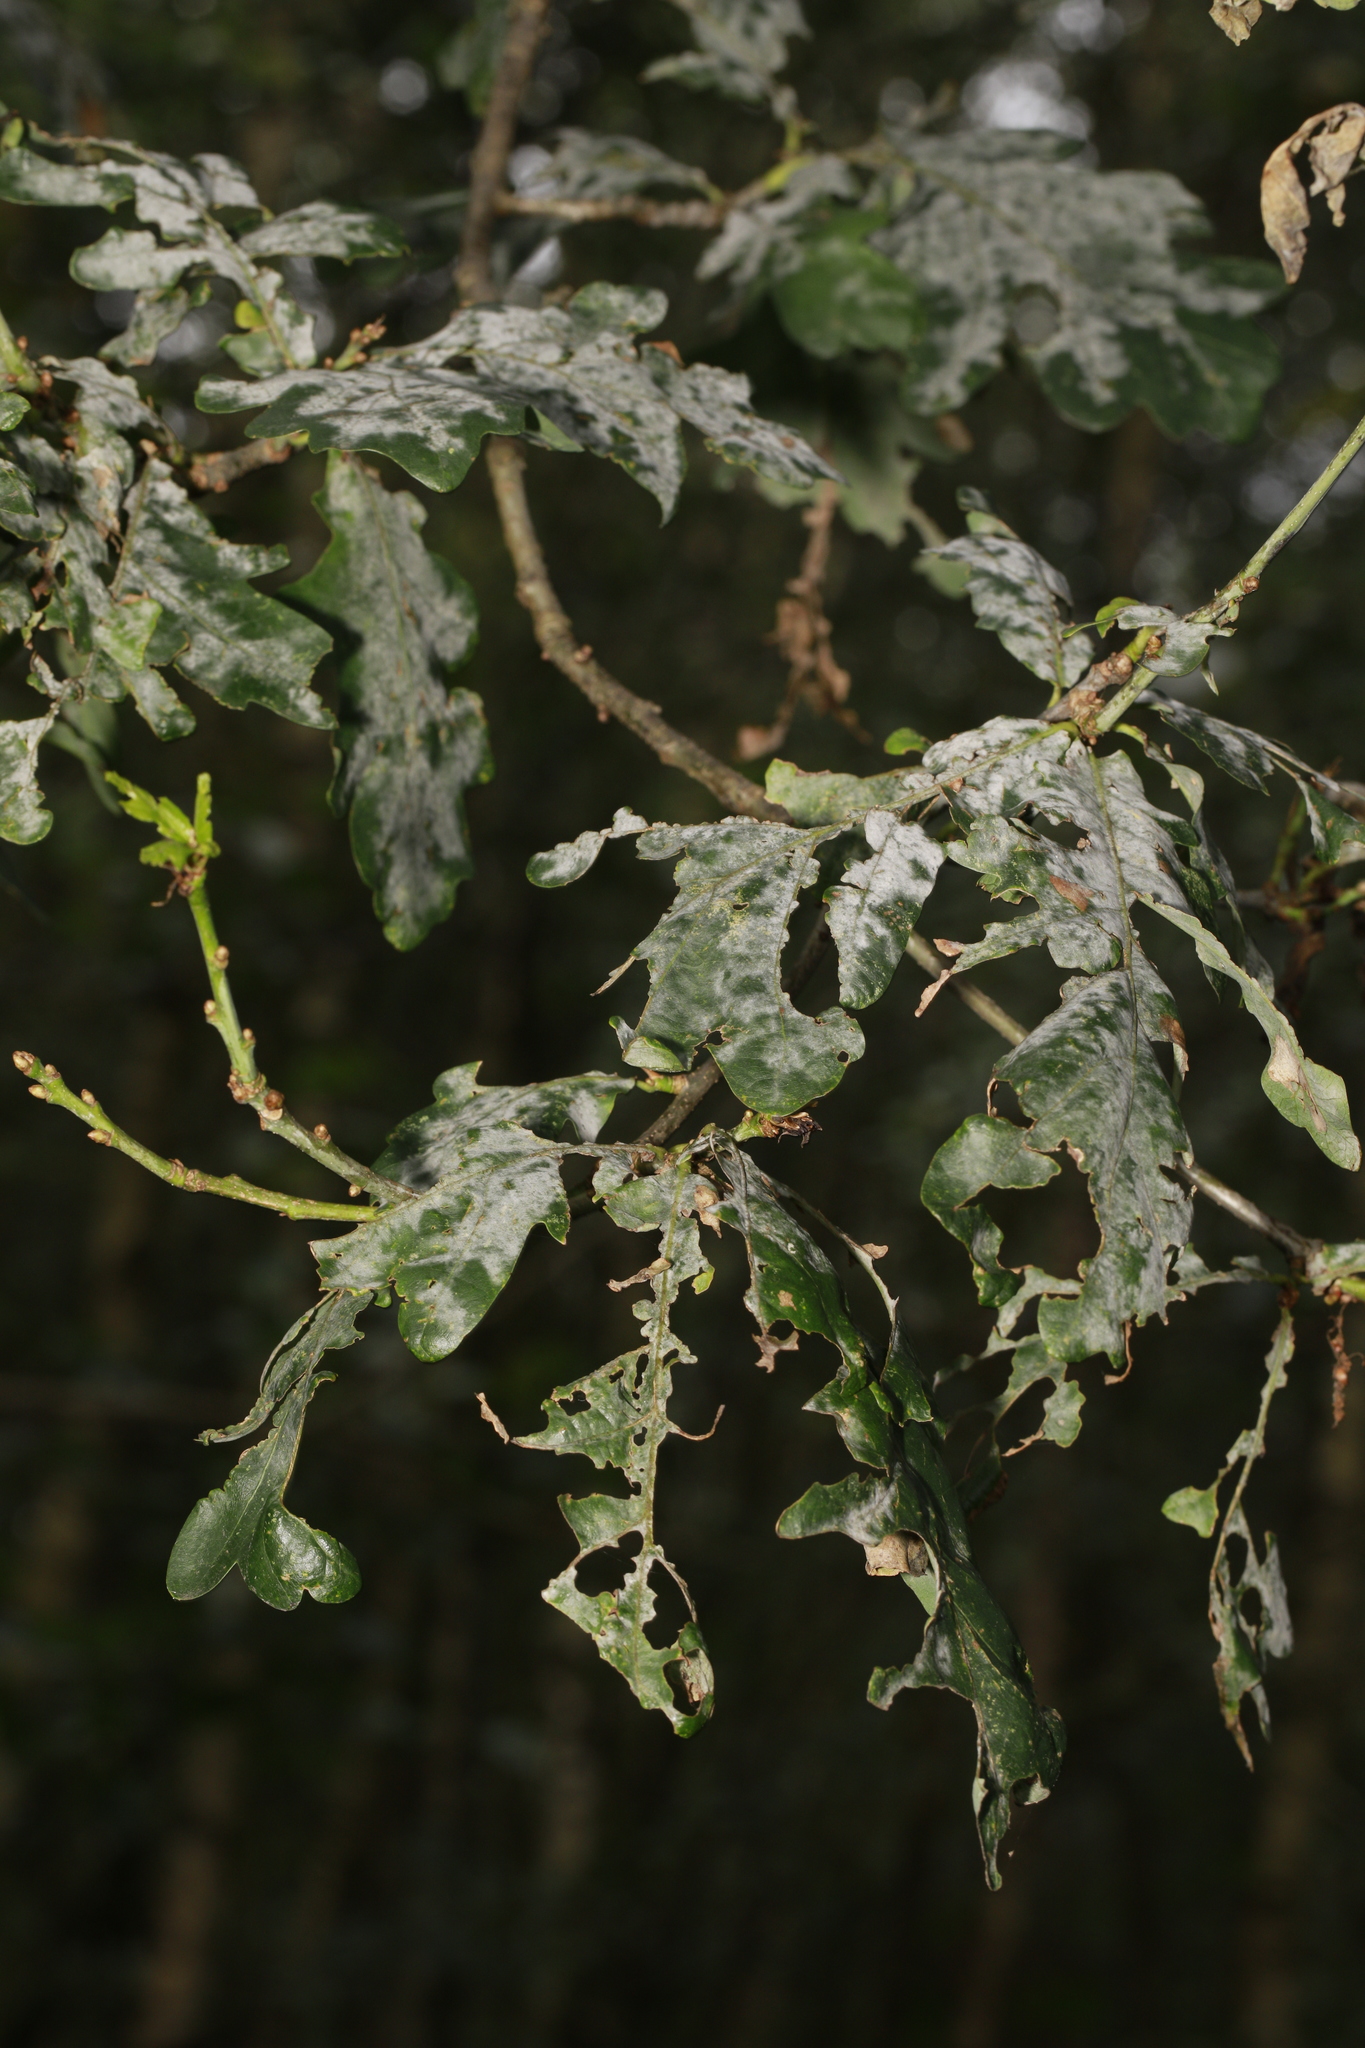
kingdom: Fungi
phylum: Ascomycota
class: Leotiomycetes
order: Helotiales
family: Erysiphaceae
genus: Erysiphe
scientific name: Erysiphe alphitoides
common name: Oak mildew
